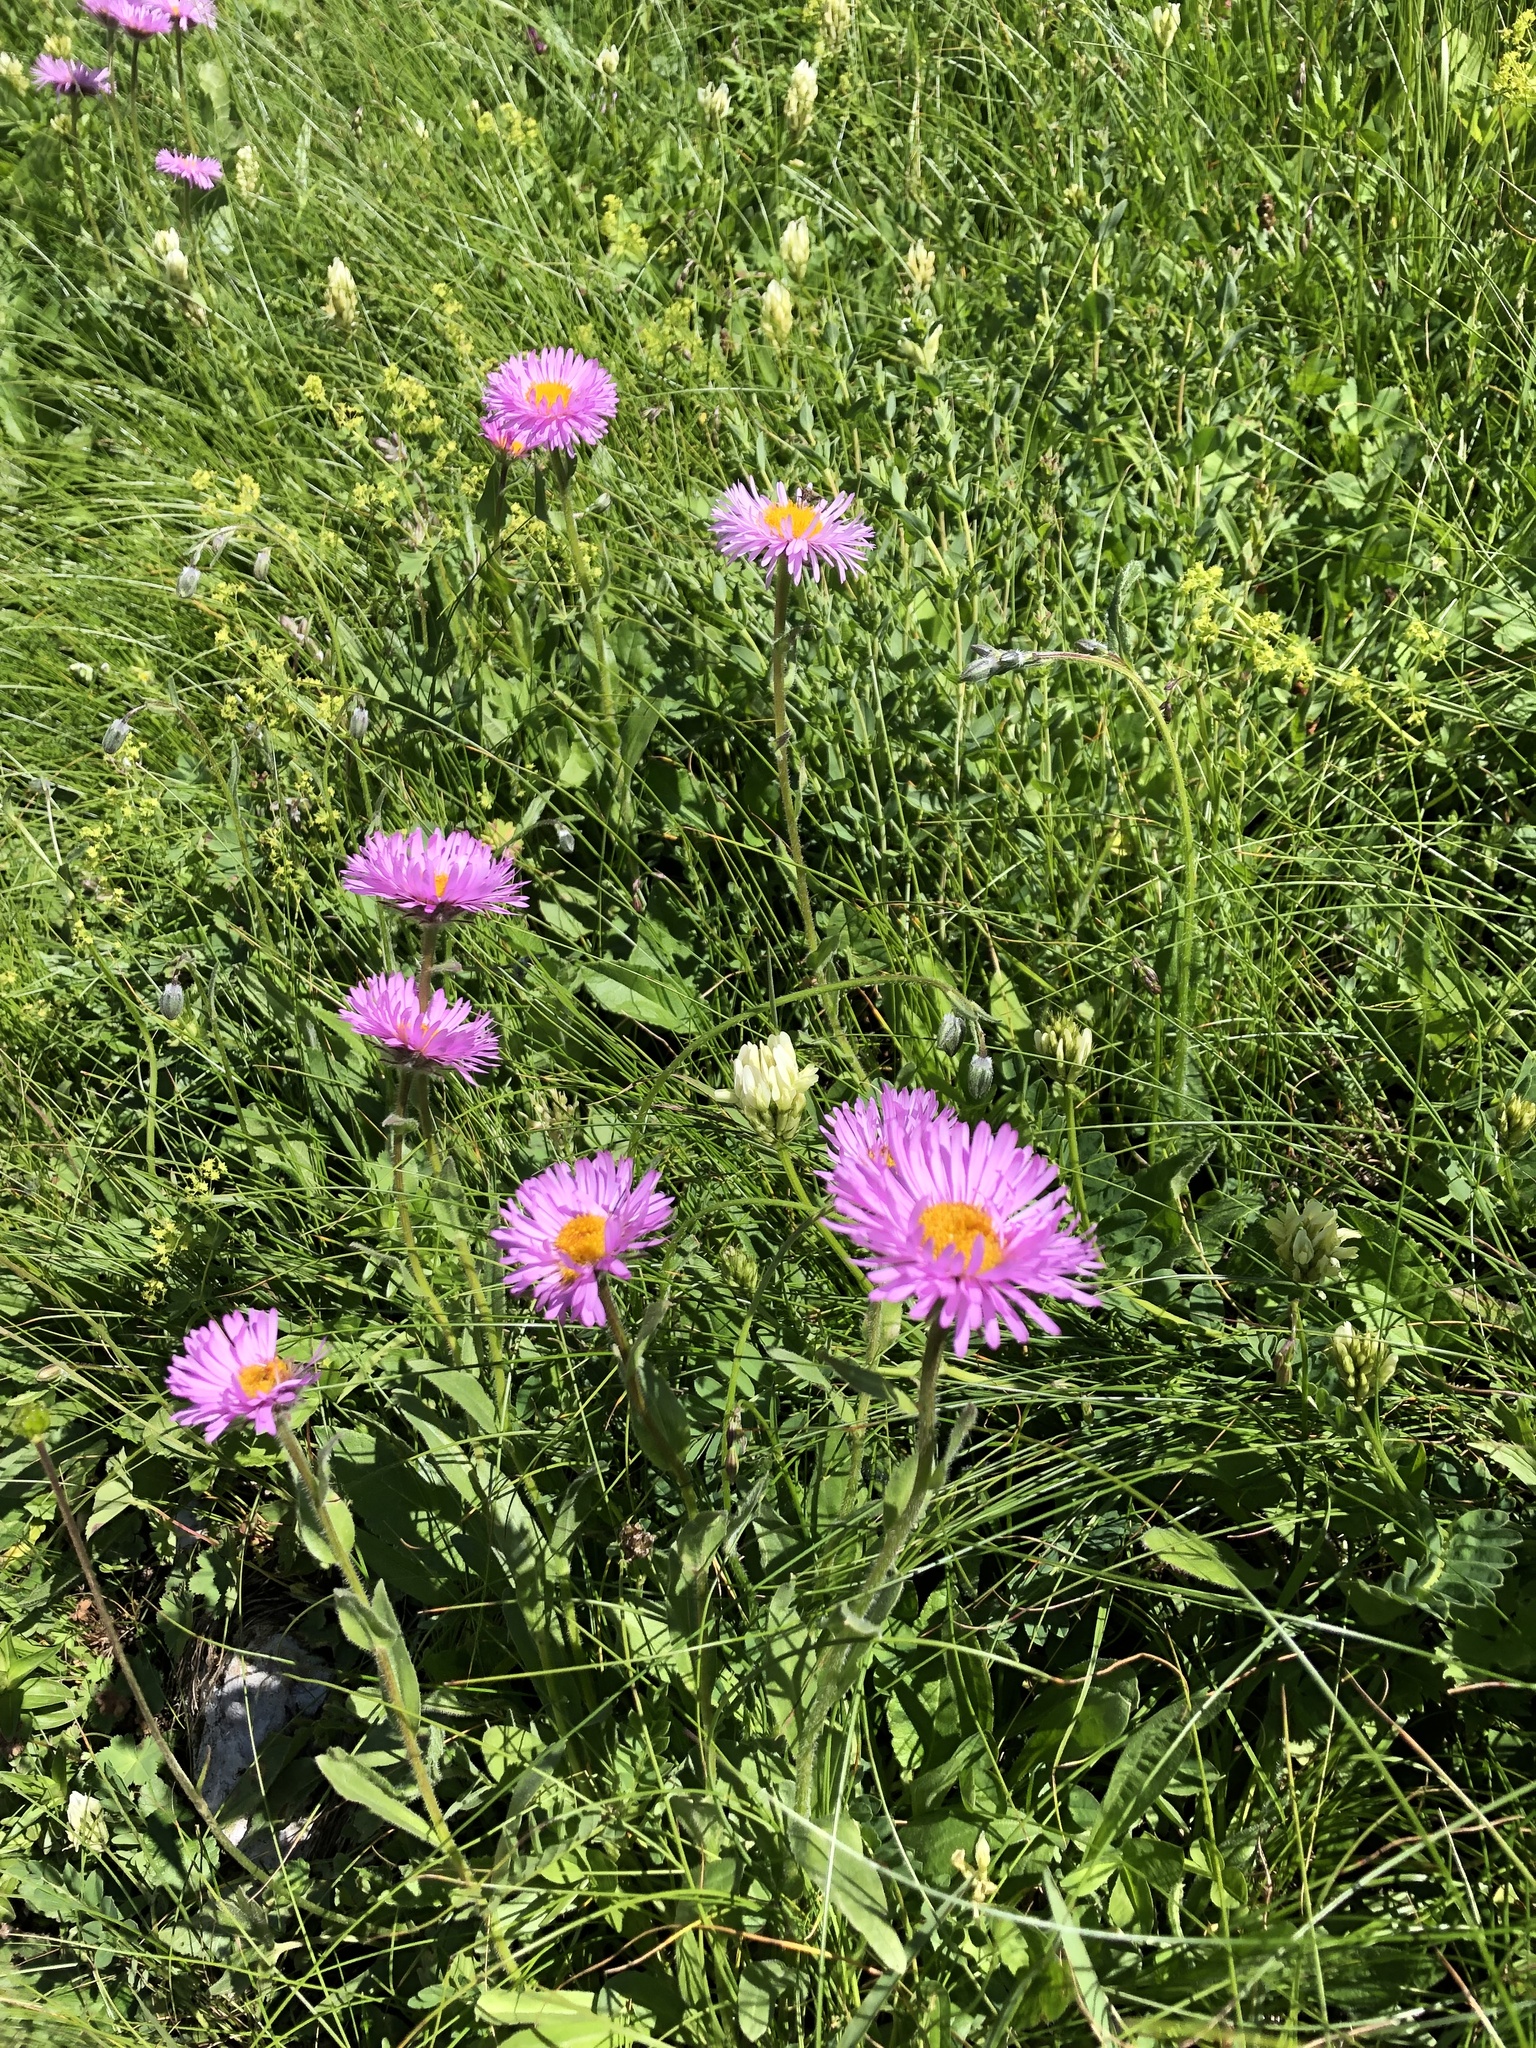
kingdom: Plantae
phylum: Tracheophyta
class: Magnoliopsida
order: Asterales
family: Asteraceae
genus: Erigeron
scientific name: Erigeron caucasicus
